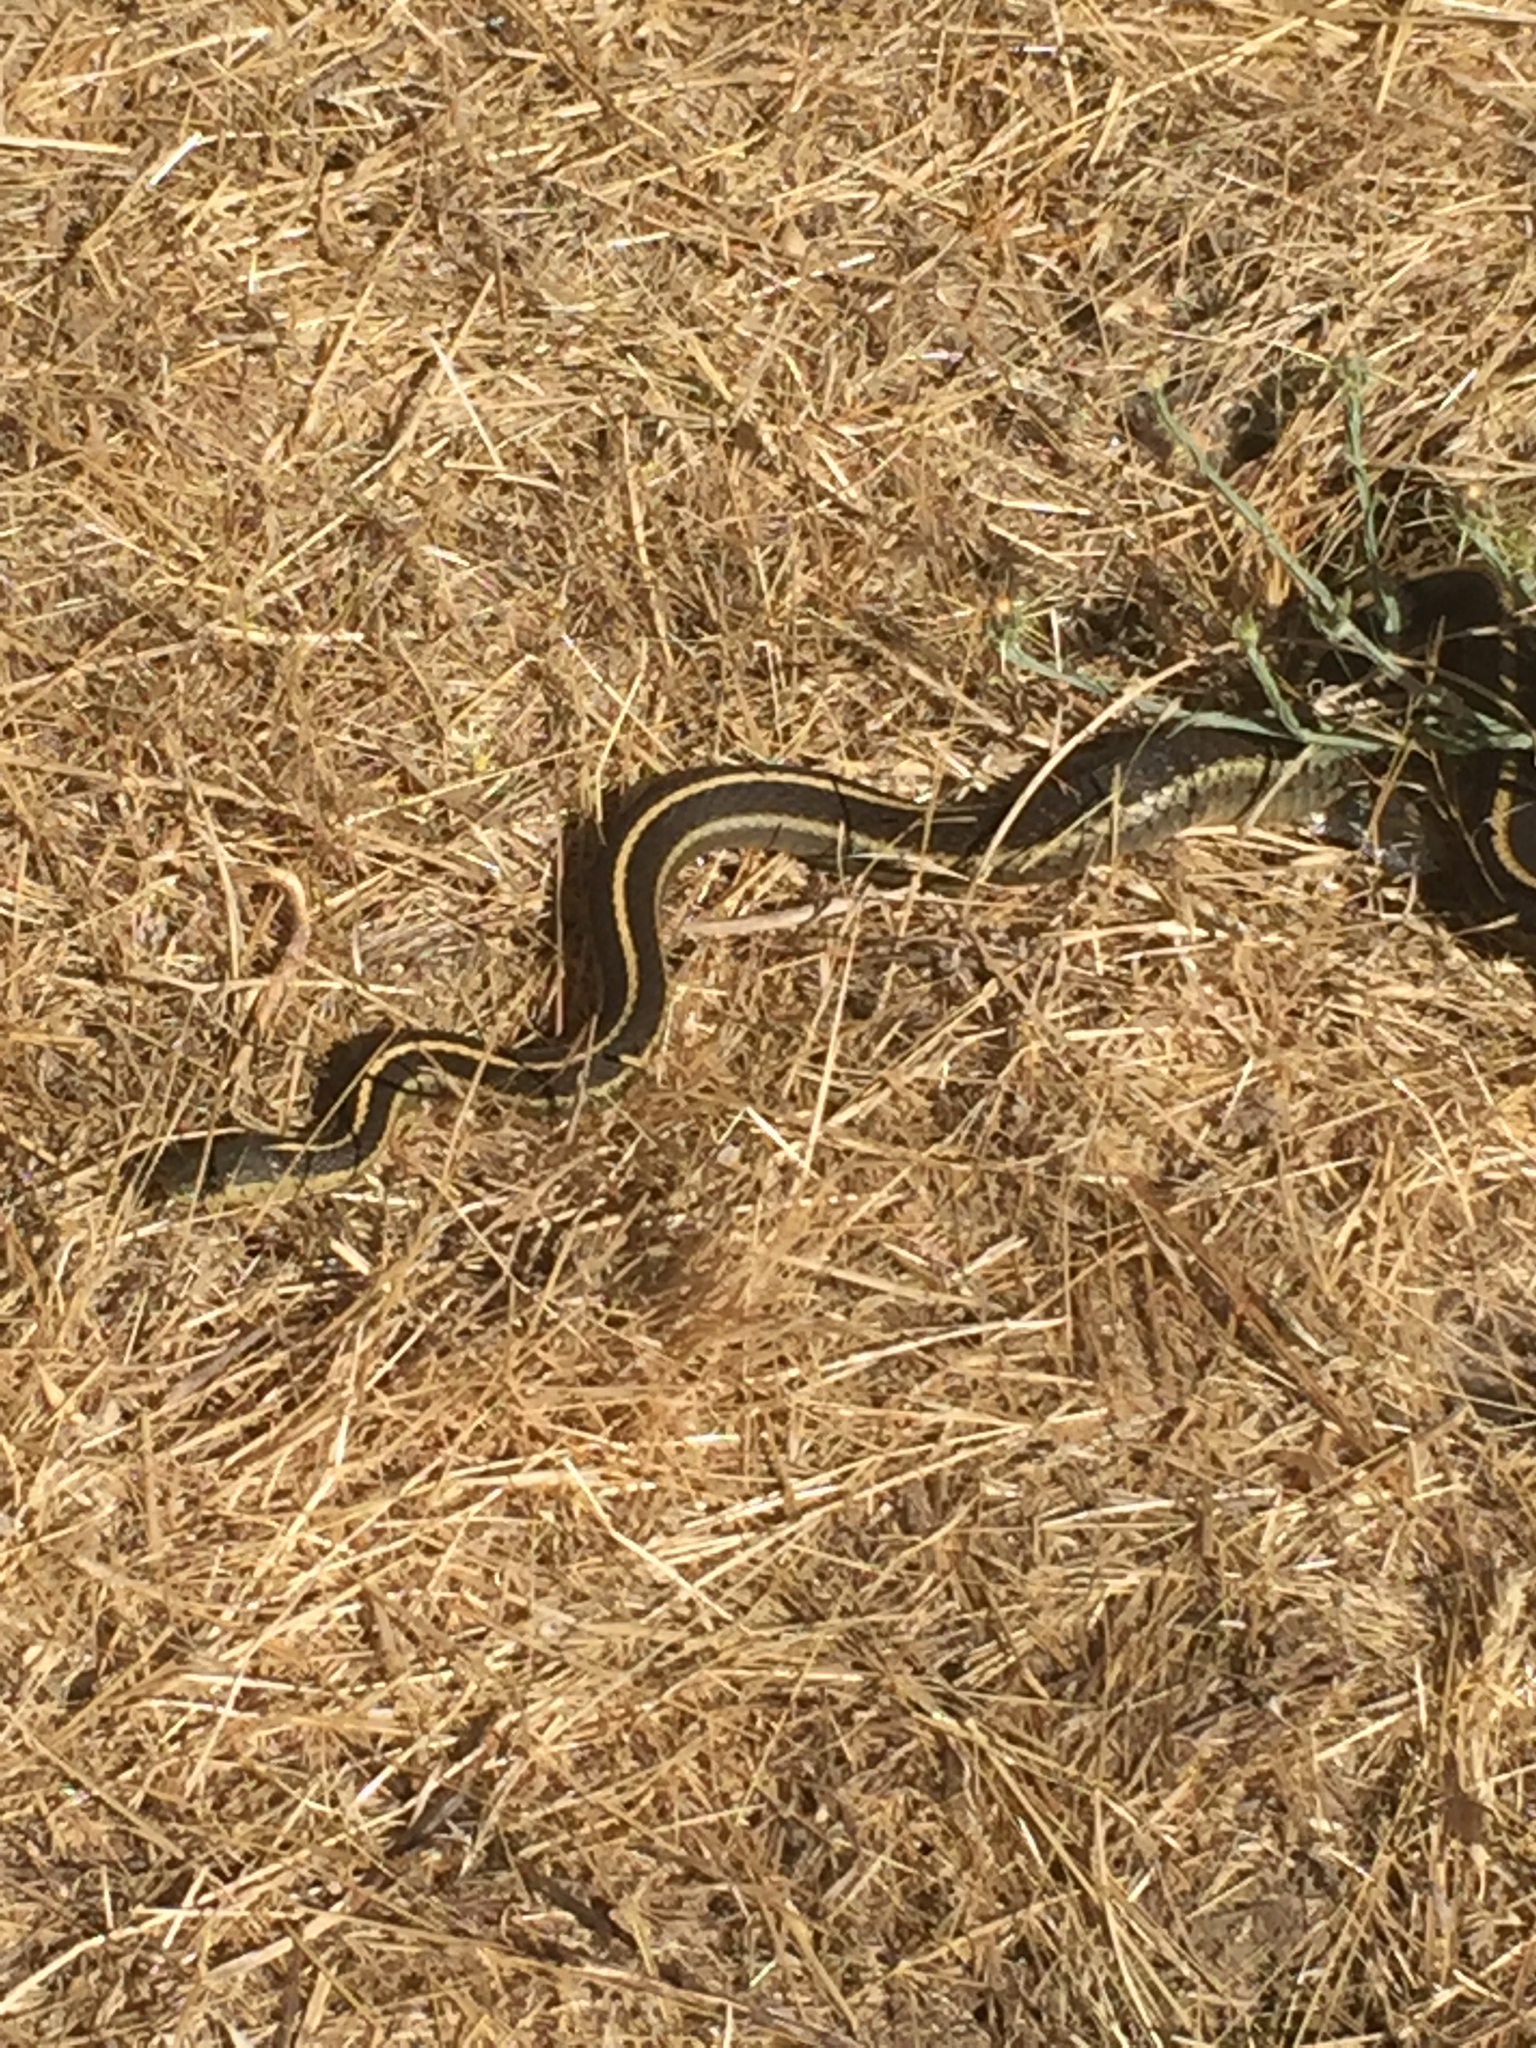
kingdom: Animalia
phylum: Chordata
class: Squamata
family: Colubridae
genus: Thamnophis
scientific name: Thamnophis atratus
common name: Pacific coast aquatic garter snake
